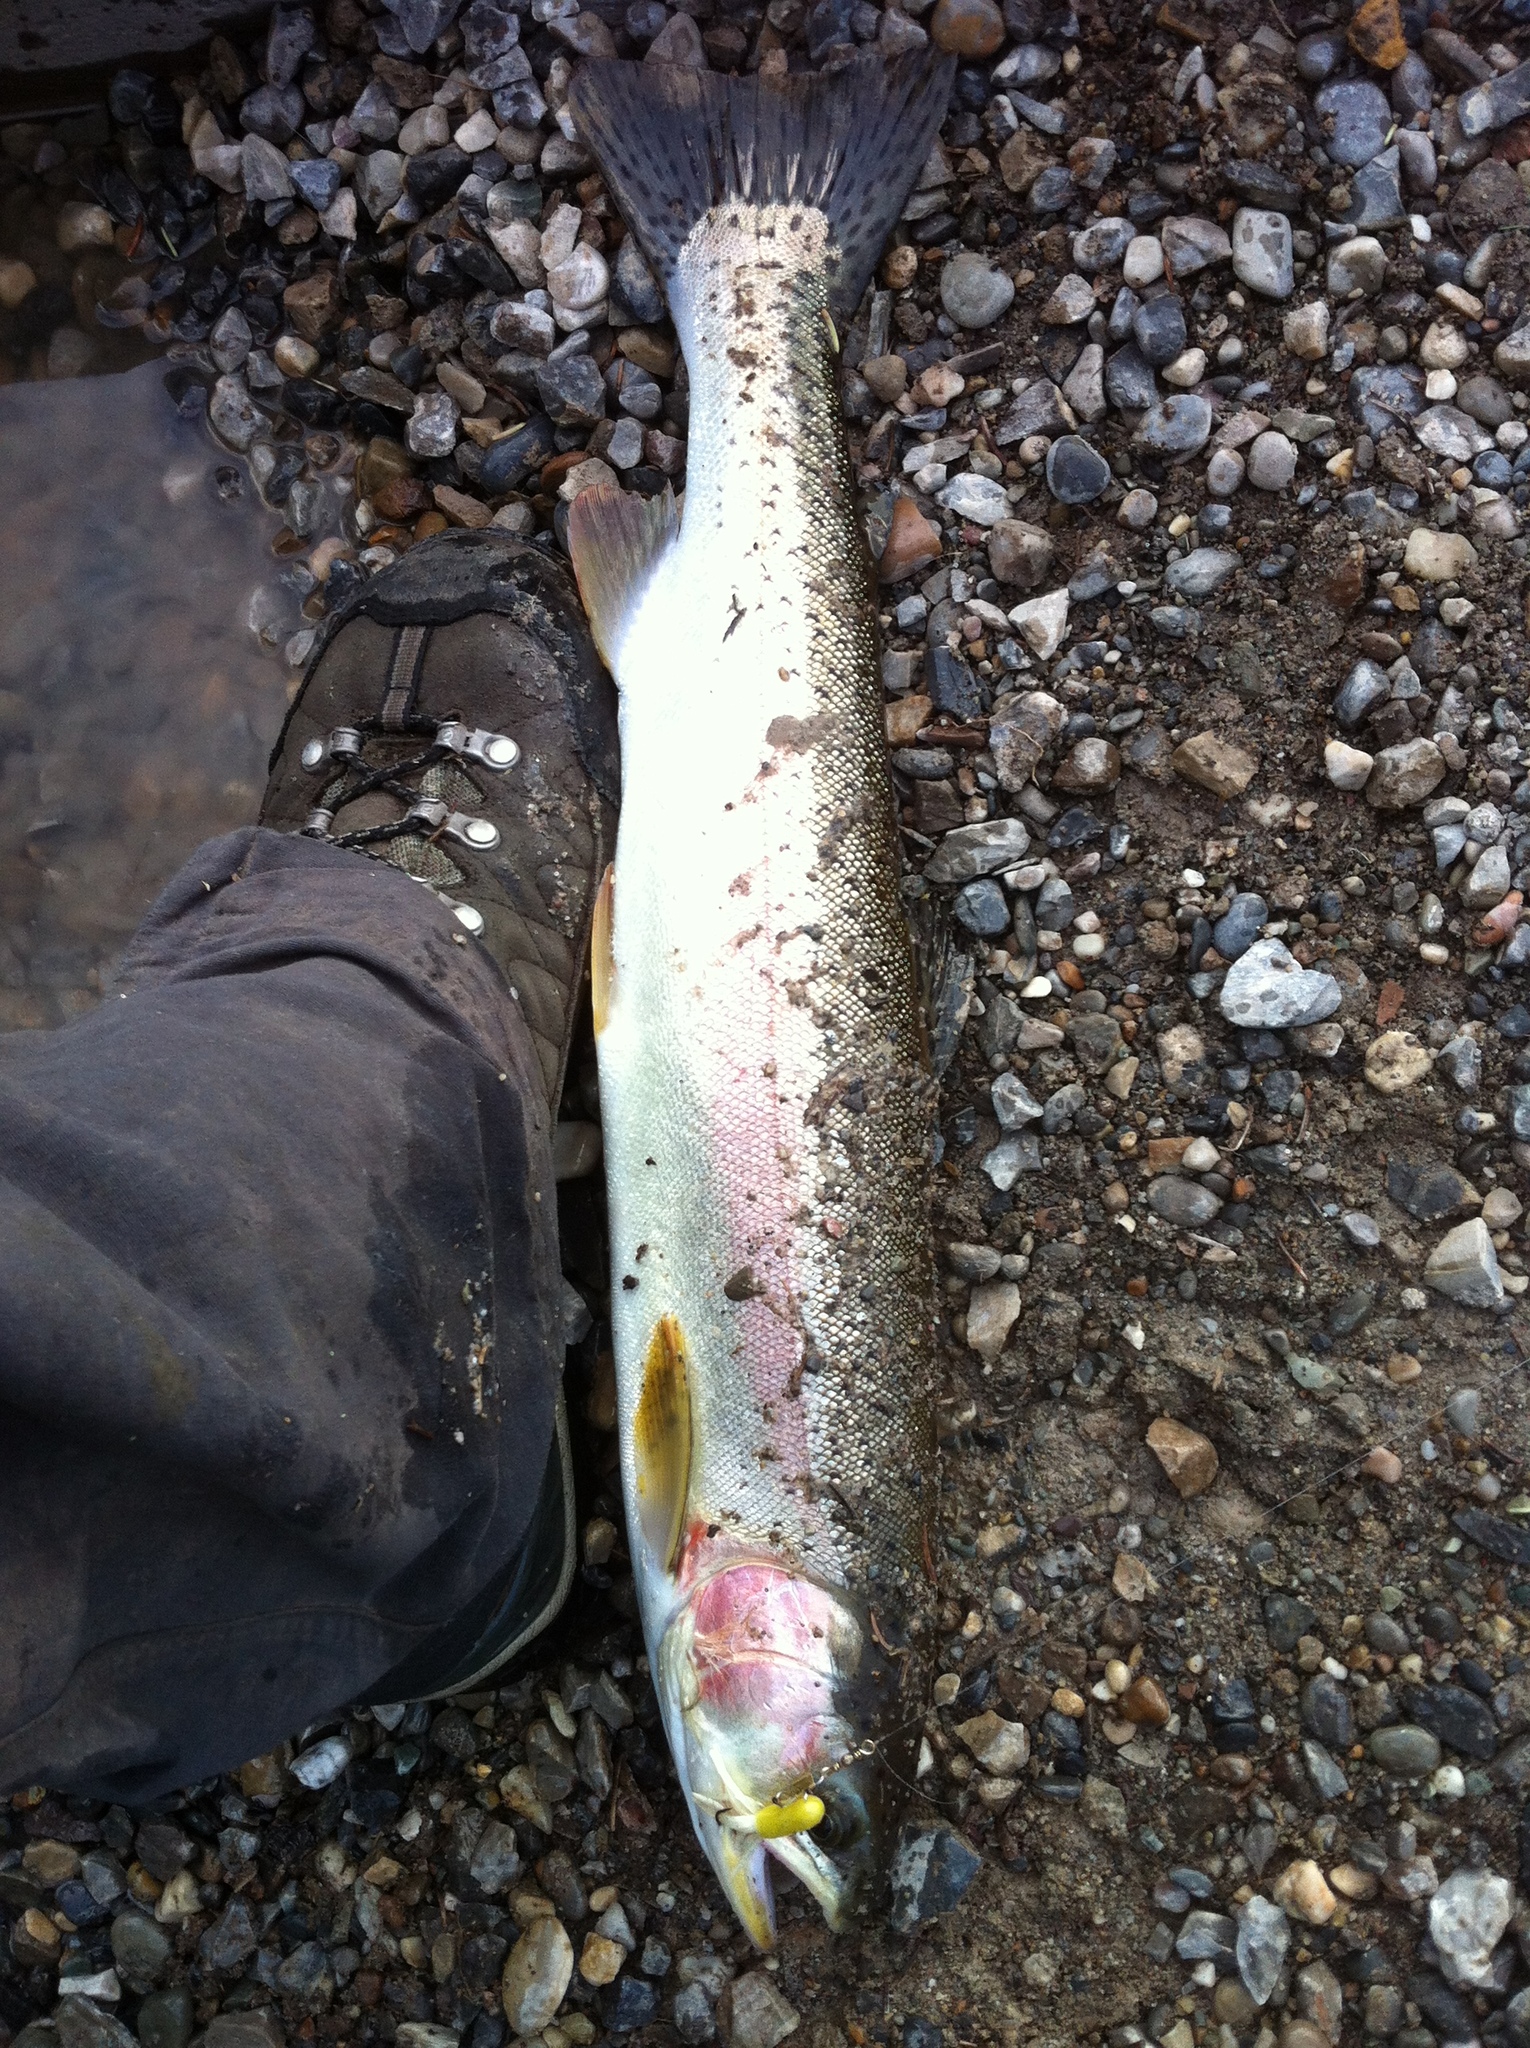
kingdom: Animalia
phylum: Chordata
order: Salmoniformes
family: Salmonidae
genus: Oncorhynchus
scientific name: Oncorhynchus mykiss
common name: Rainbow trout
